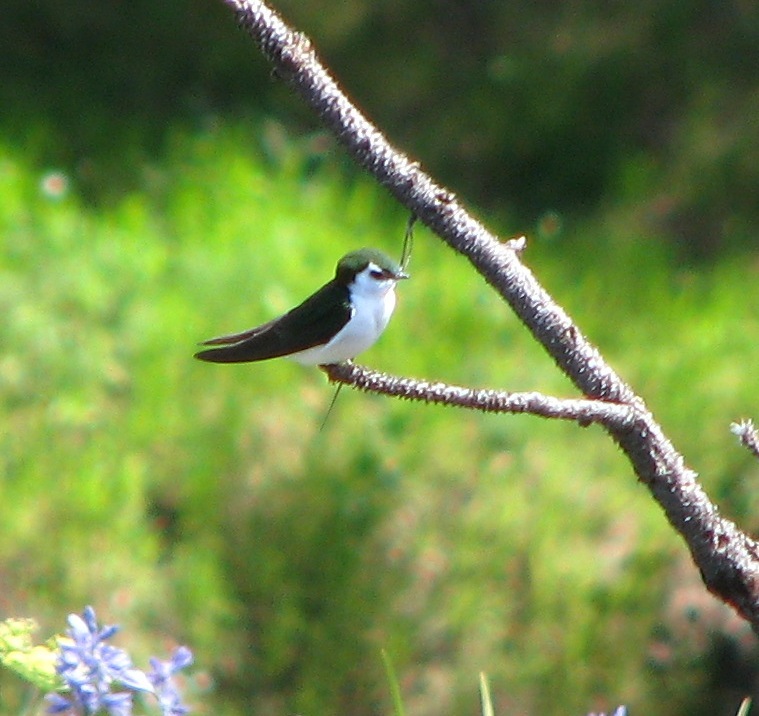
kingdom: Animalia
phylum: Chordata
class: Aves
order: Passeriformes
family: Hirundinidae
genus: Tachycineta
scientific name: Tachycineta thalassina
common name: Violet-green swallow
